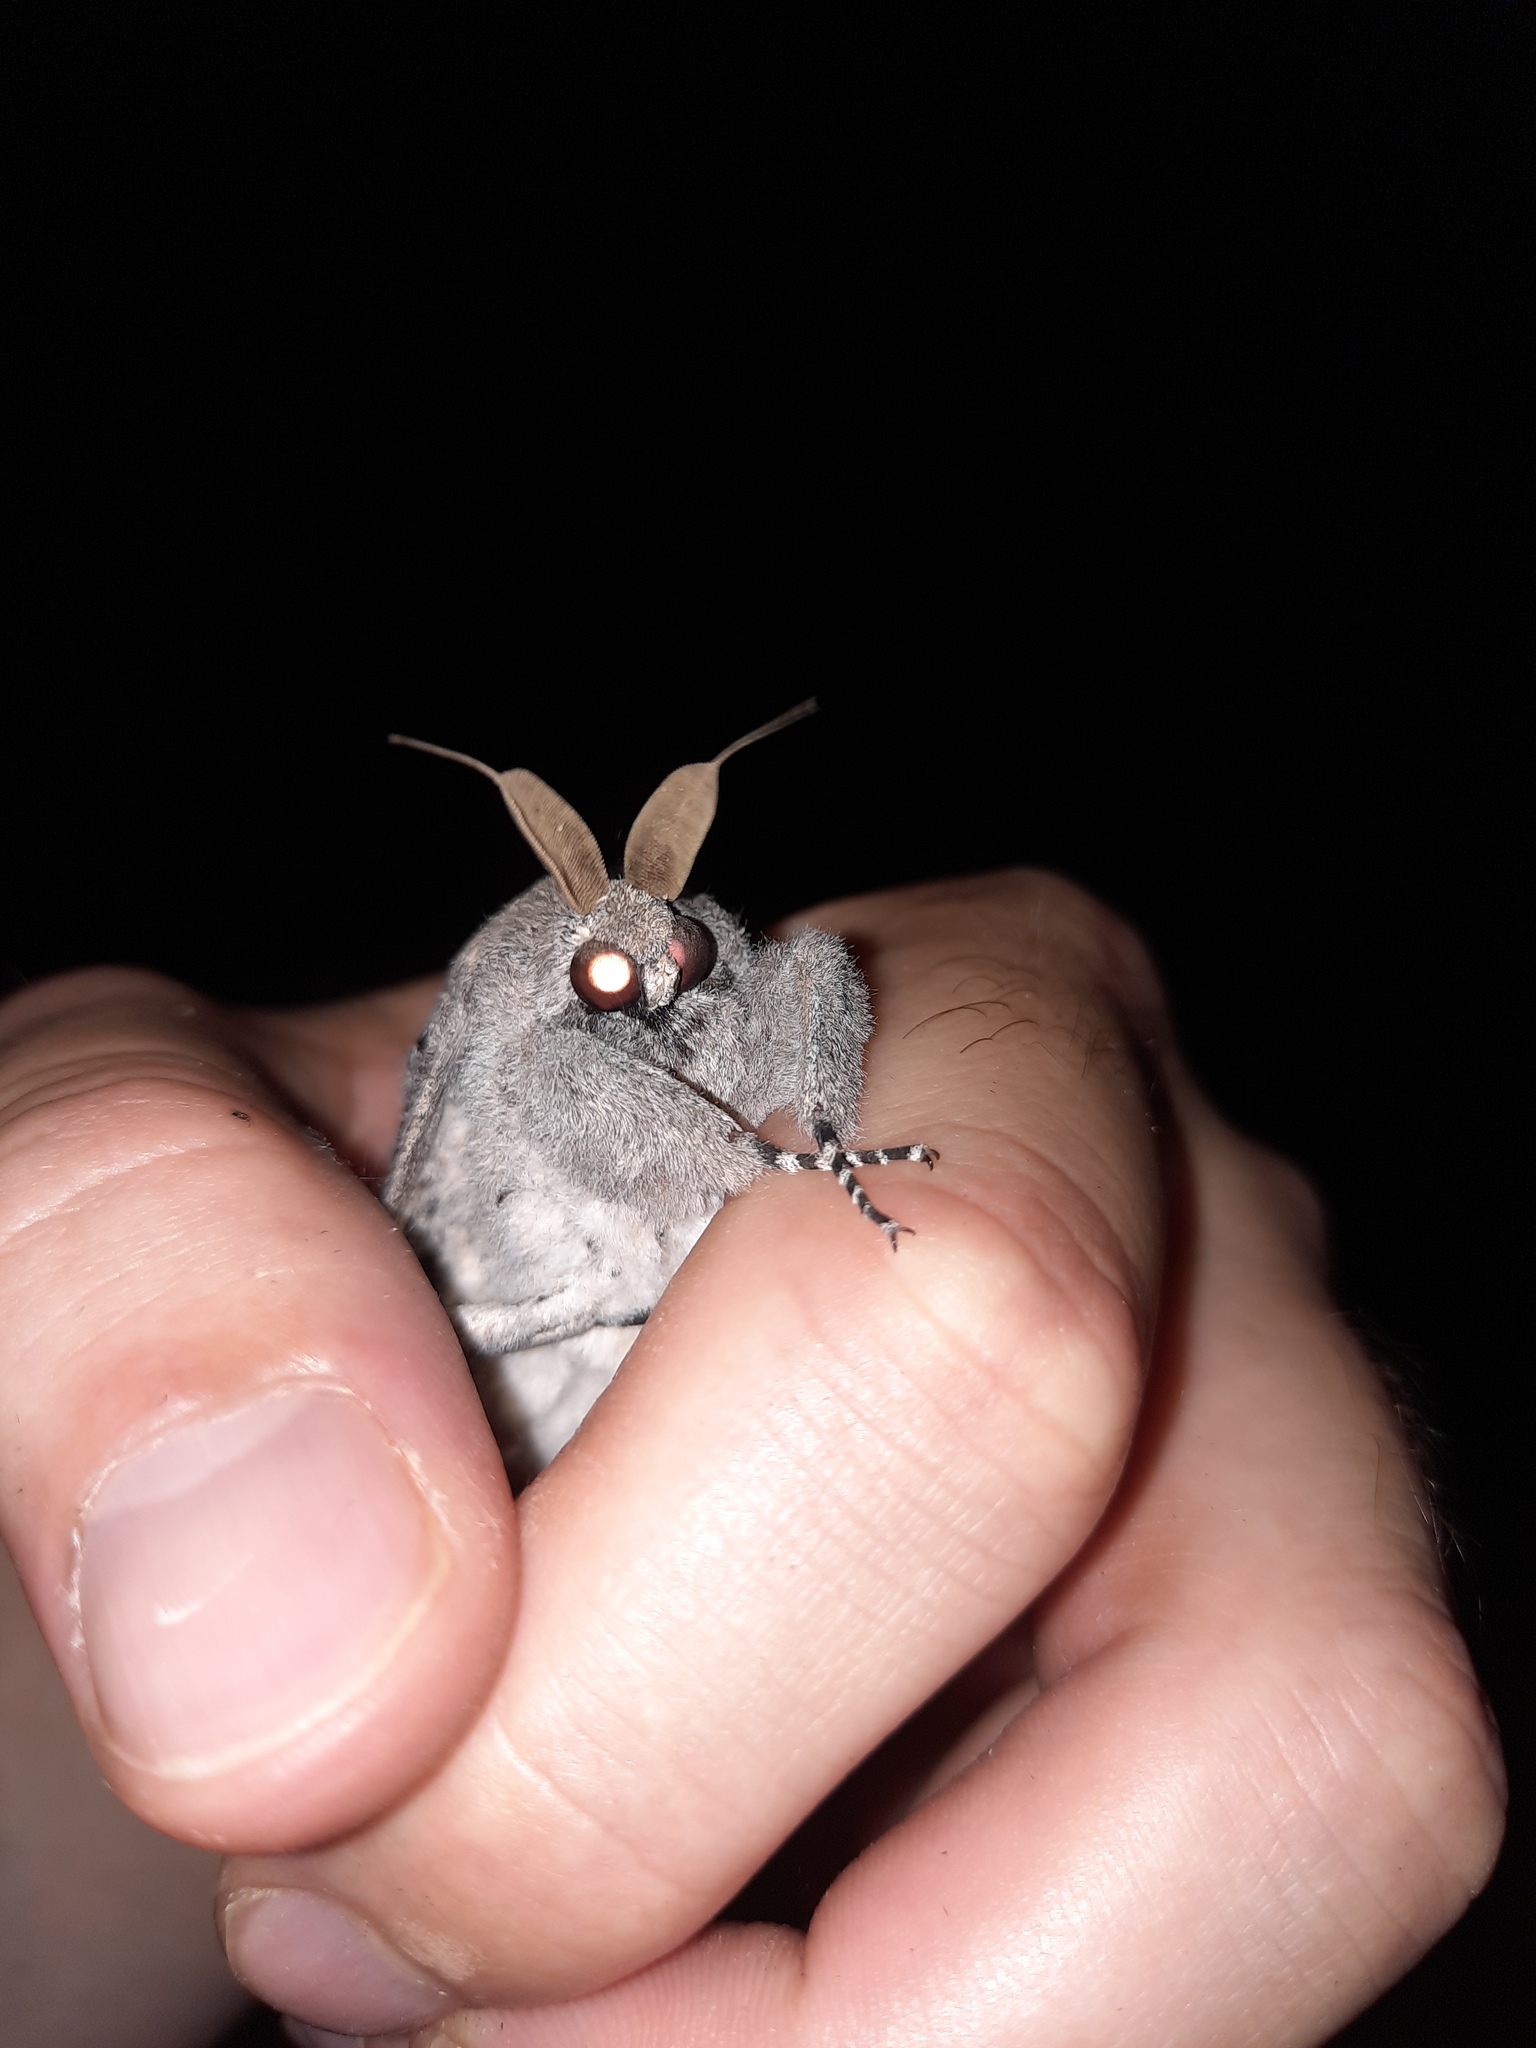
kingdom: Animalia
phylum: Arthropoda
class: Insecta
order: Lepidoptera
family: Cossidae
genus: Endoxyla
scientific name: Endoxyla cinereus
